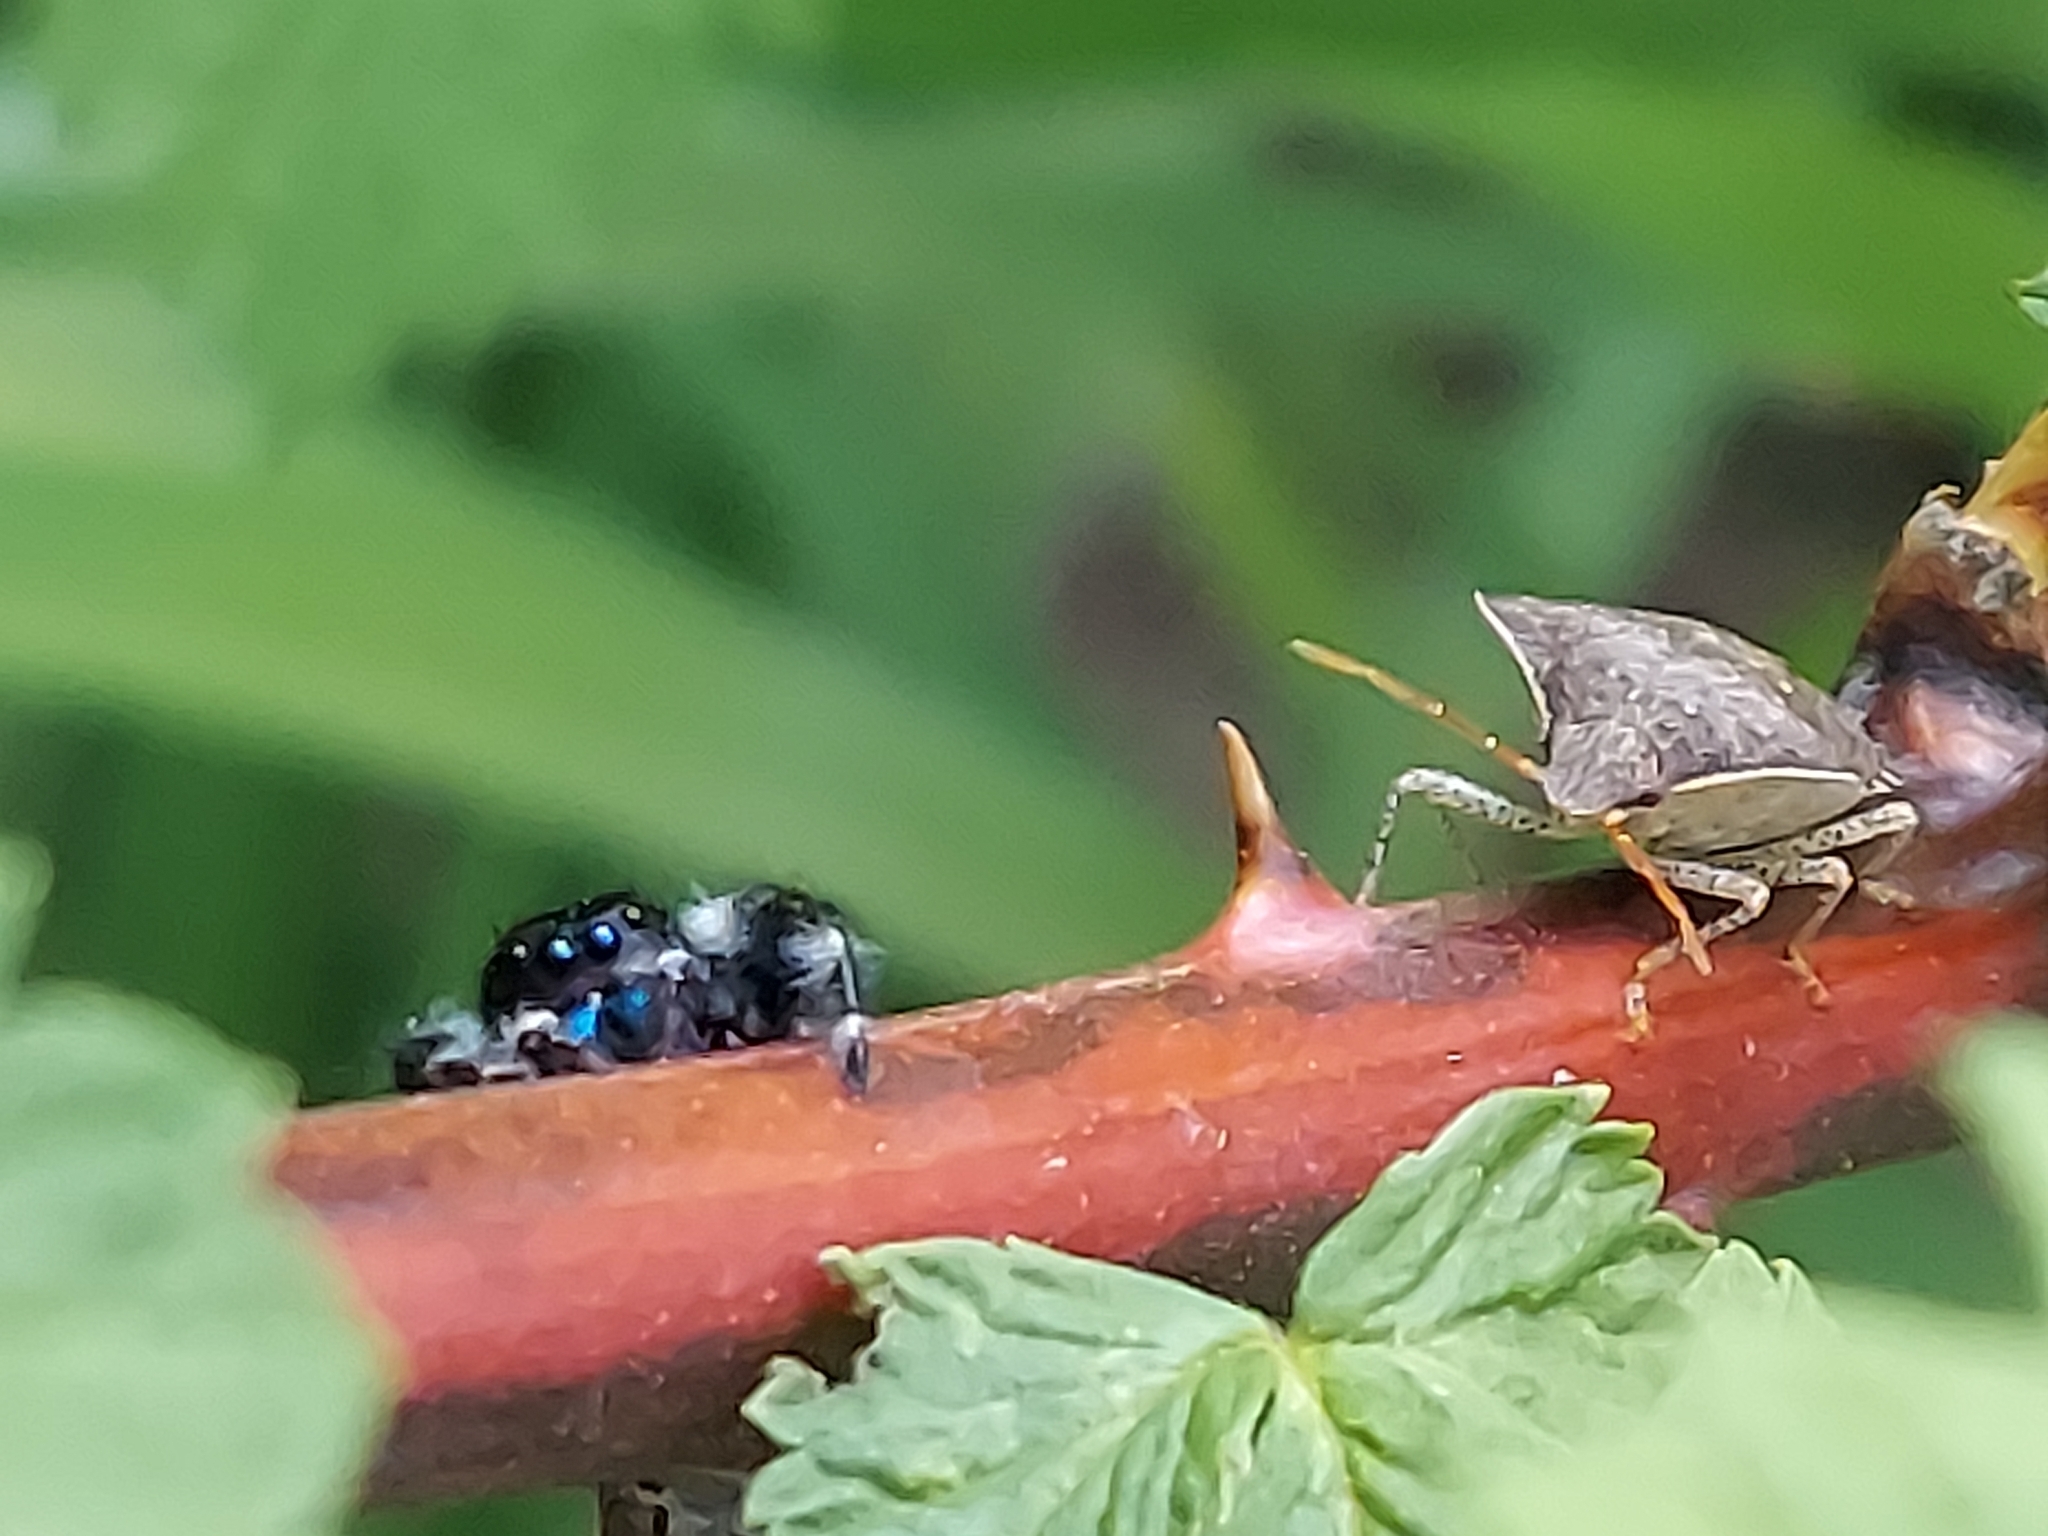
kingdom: Animalia
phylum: Arthropoda
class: Arachnida
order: Araneae
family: Salticidae
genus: Phidippus
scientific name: Phidippus audax
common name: Bold jumper
